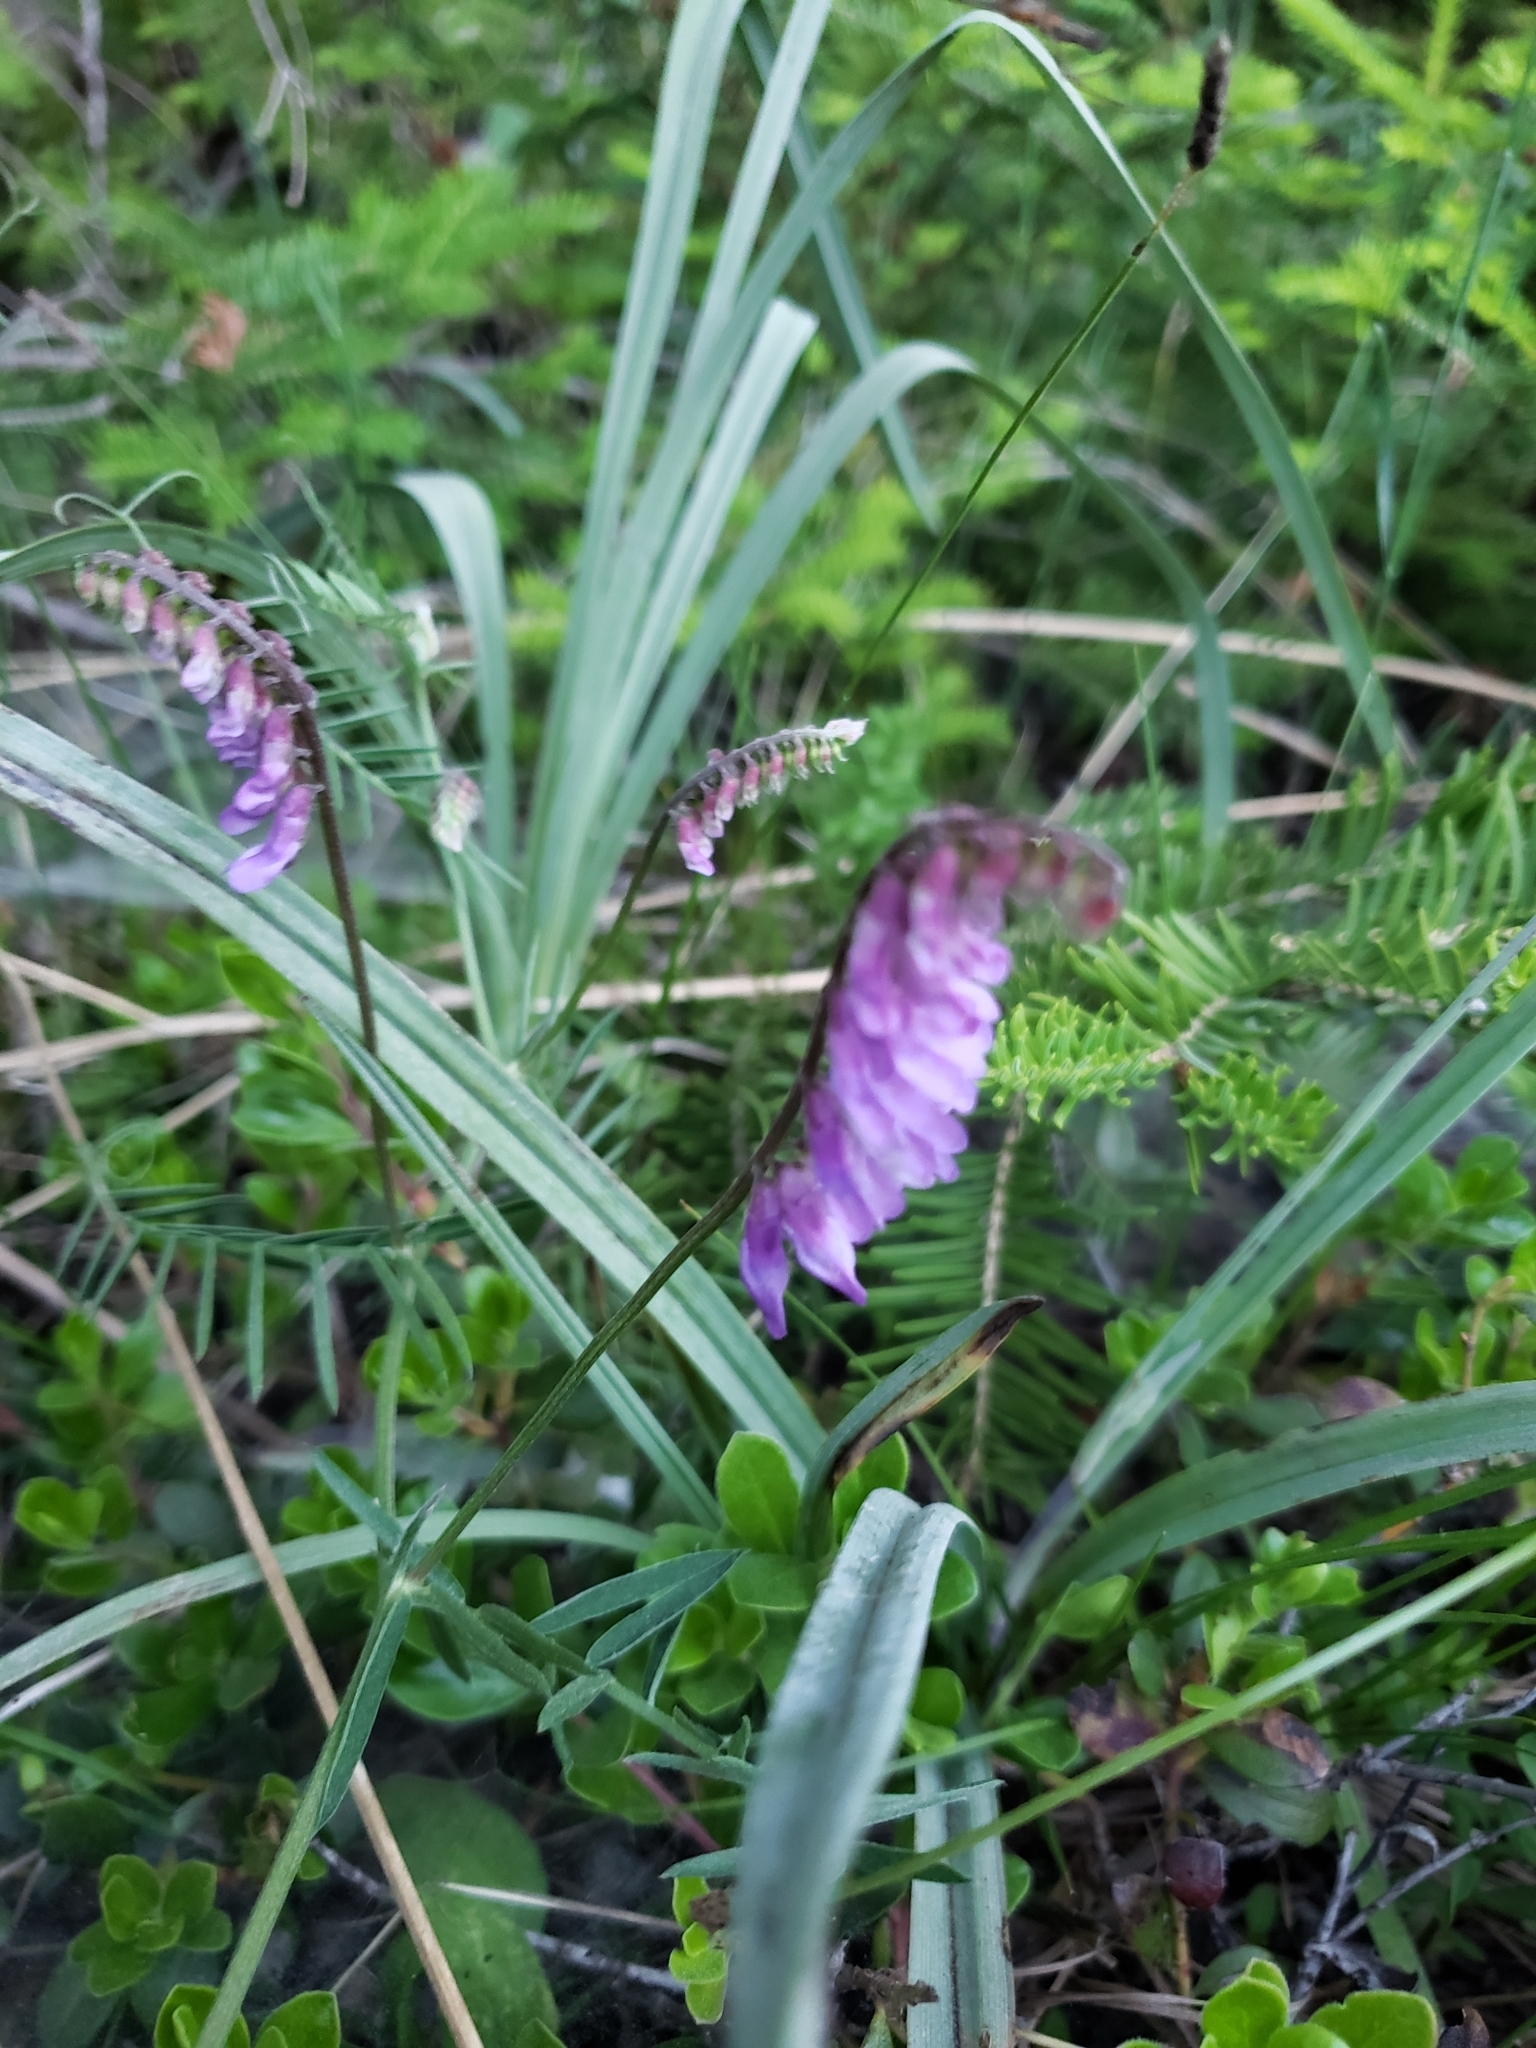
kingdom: Plantae
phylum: Tracheophyta
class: Magnoliopsida
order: Fabales
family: Fabaceae
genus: Vicia
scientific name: Vicia cracca
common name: Bird vetch
